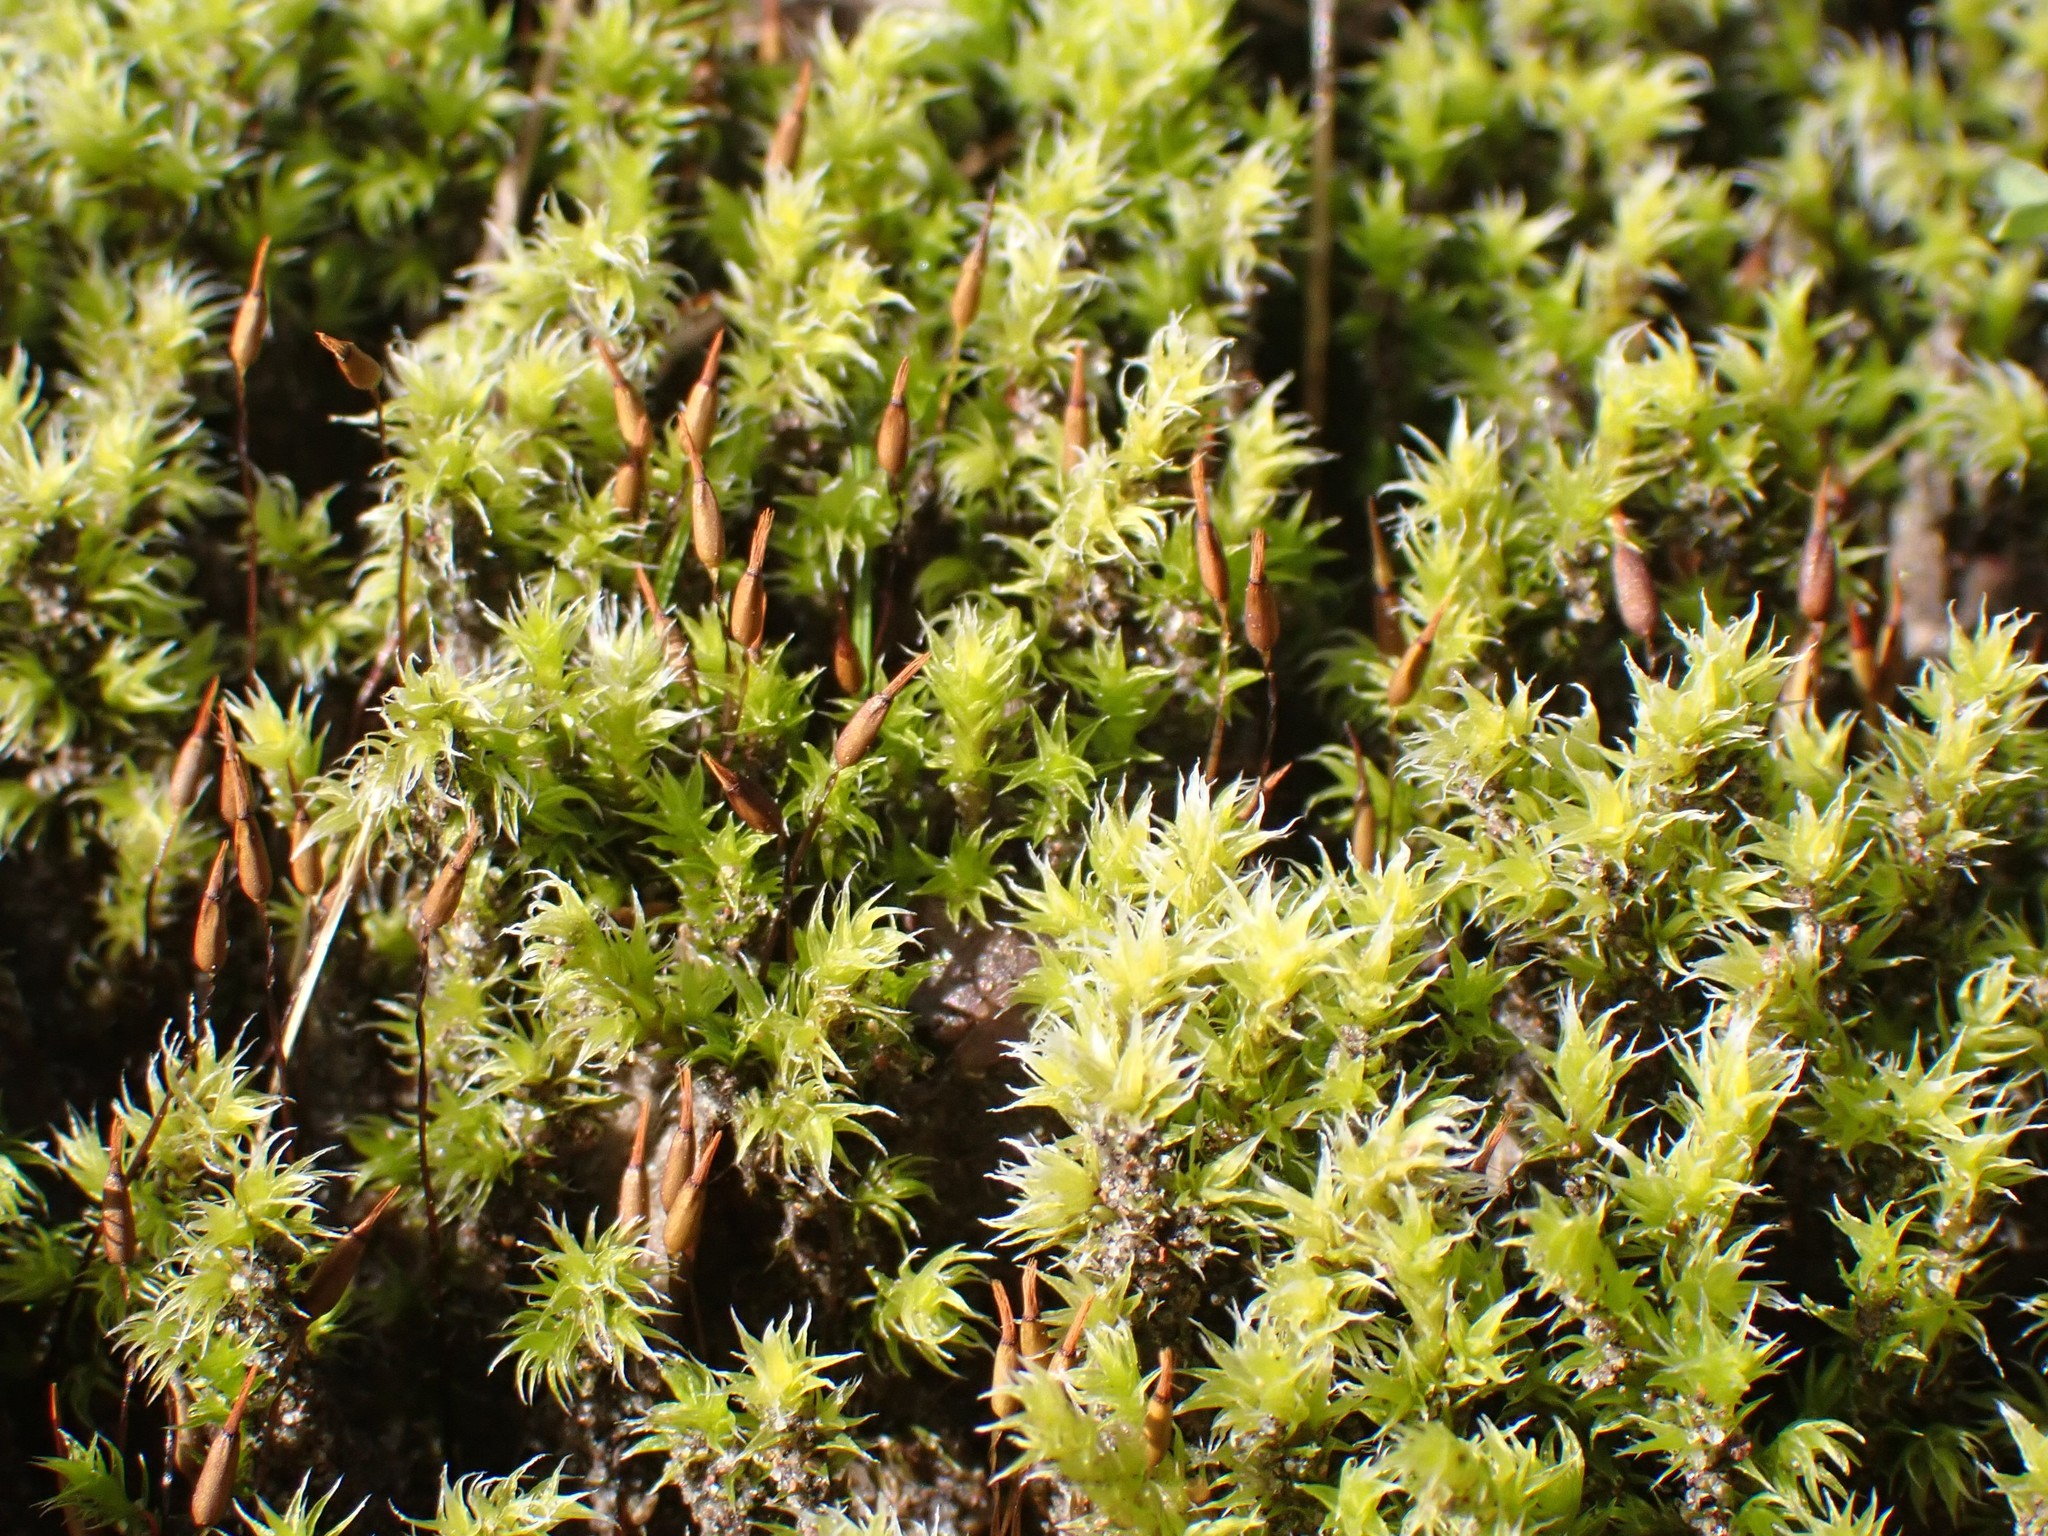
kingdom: Plantae
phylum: Bryophyta
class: Bryopsida
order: Grimmiales
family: Grimmiaceae
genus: Niphotrichum
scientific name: Niphotrichum elongatum
